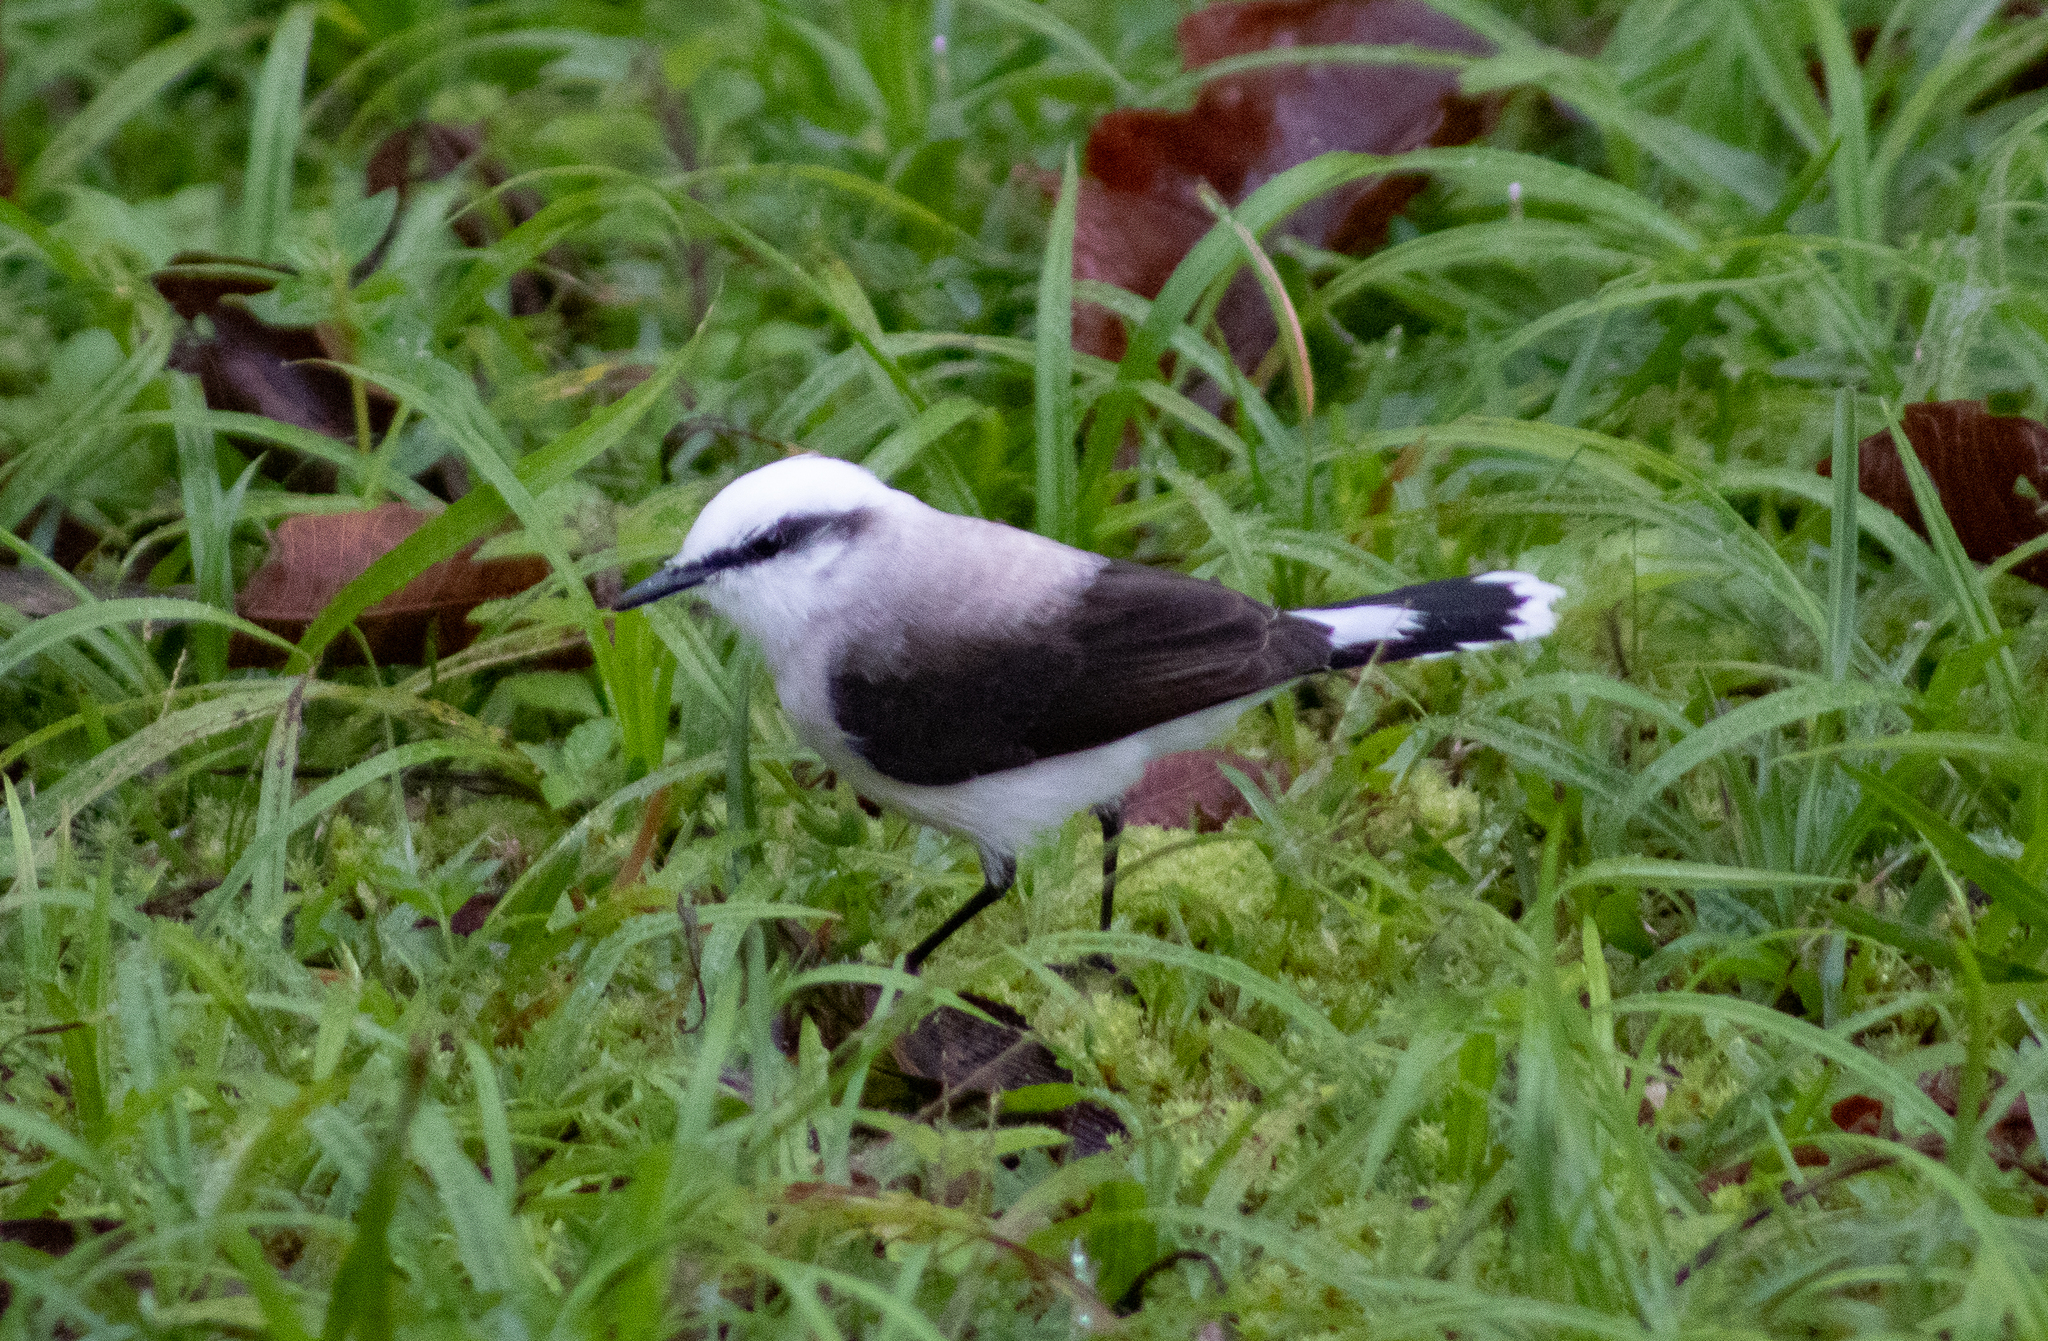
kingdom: Animalia
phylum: Chordata
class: Aves
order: Passeriformes
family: Tyrannidae
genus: Fluvicola
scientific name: Fluvicola nengeta
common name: Masked water tyrant
